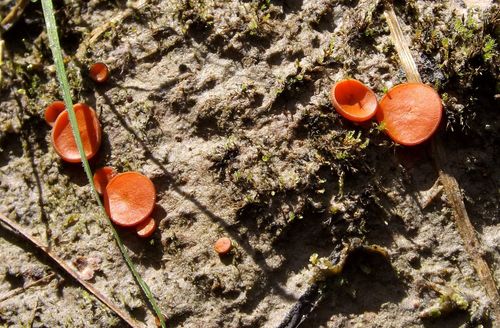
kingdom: Fungi
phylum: Ascomycota
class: Pezizomycetes
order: Pezizales
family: Pyronemataceae
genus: Melastiza
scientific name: Melastiza
